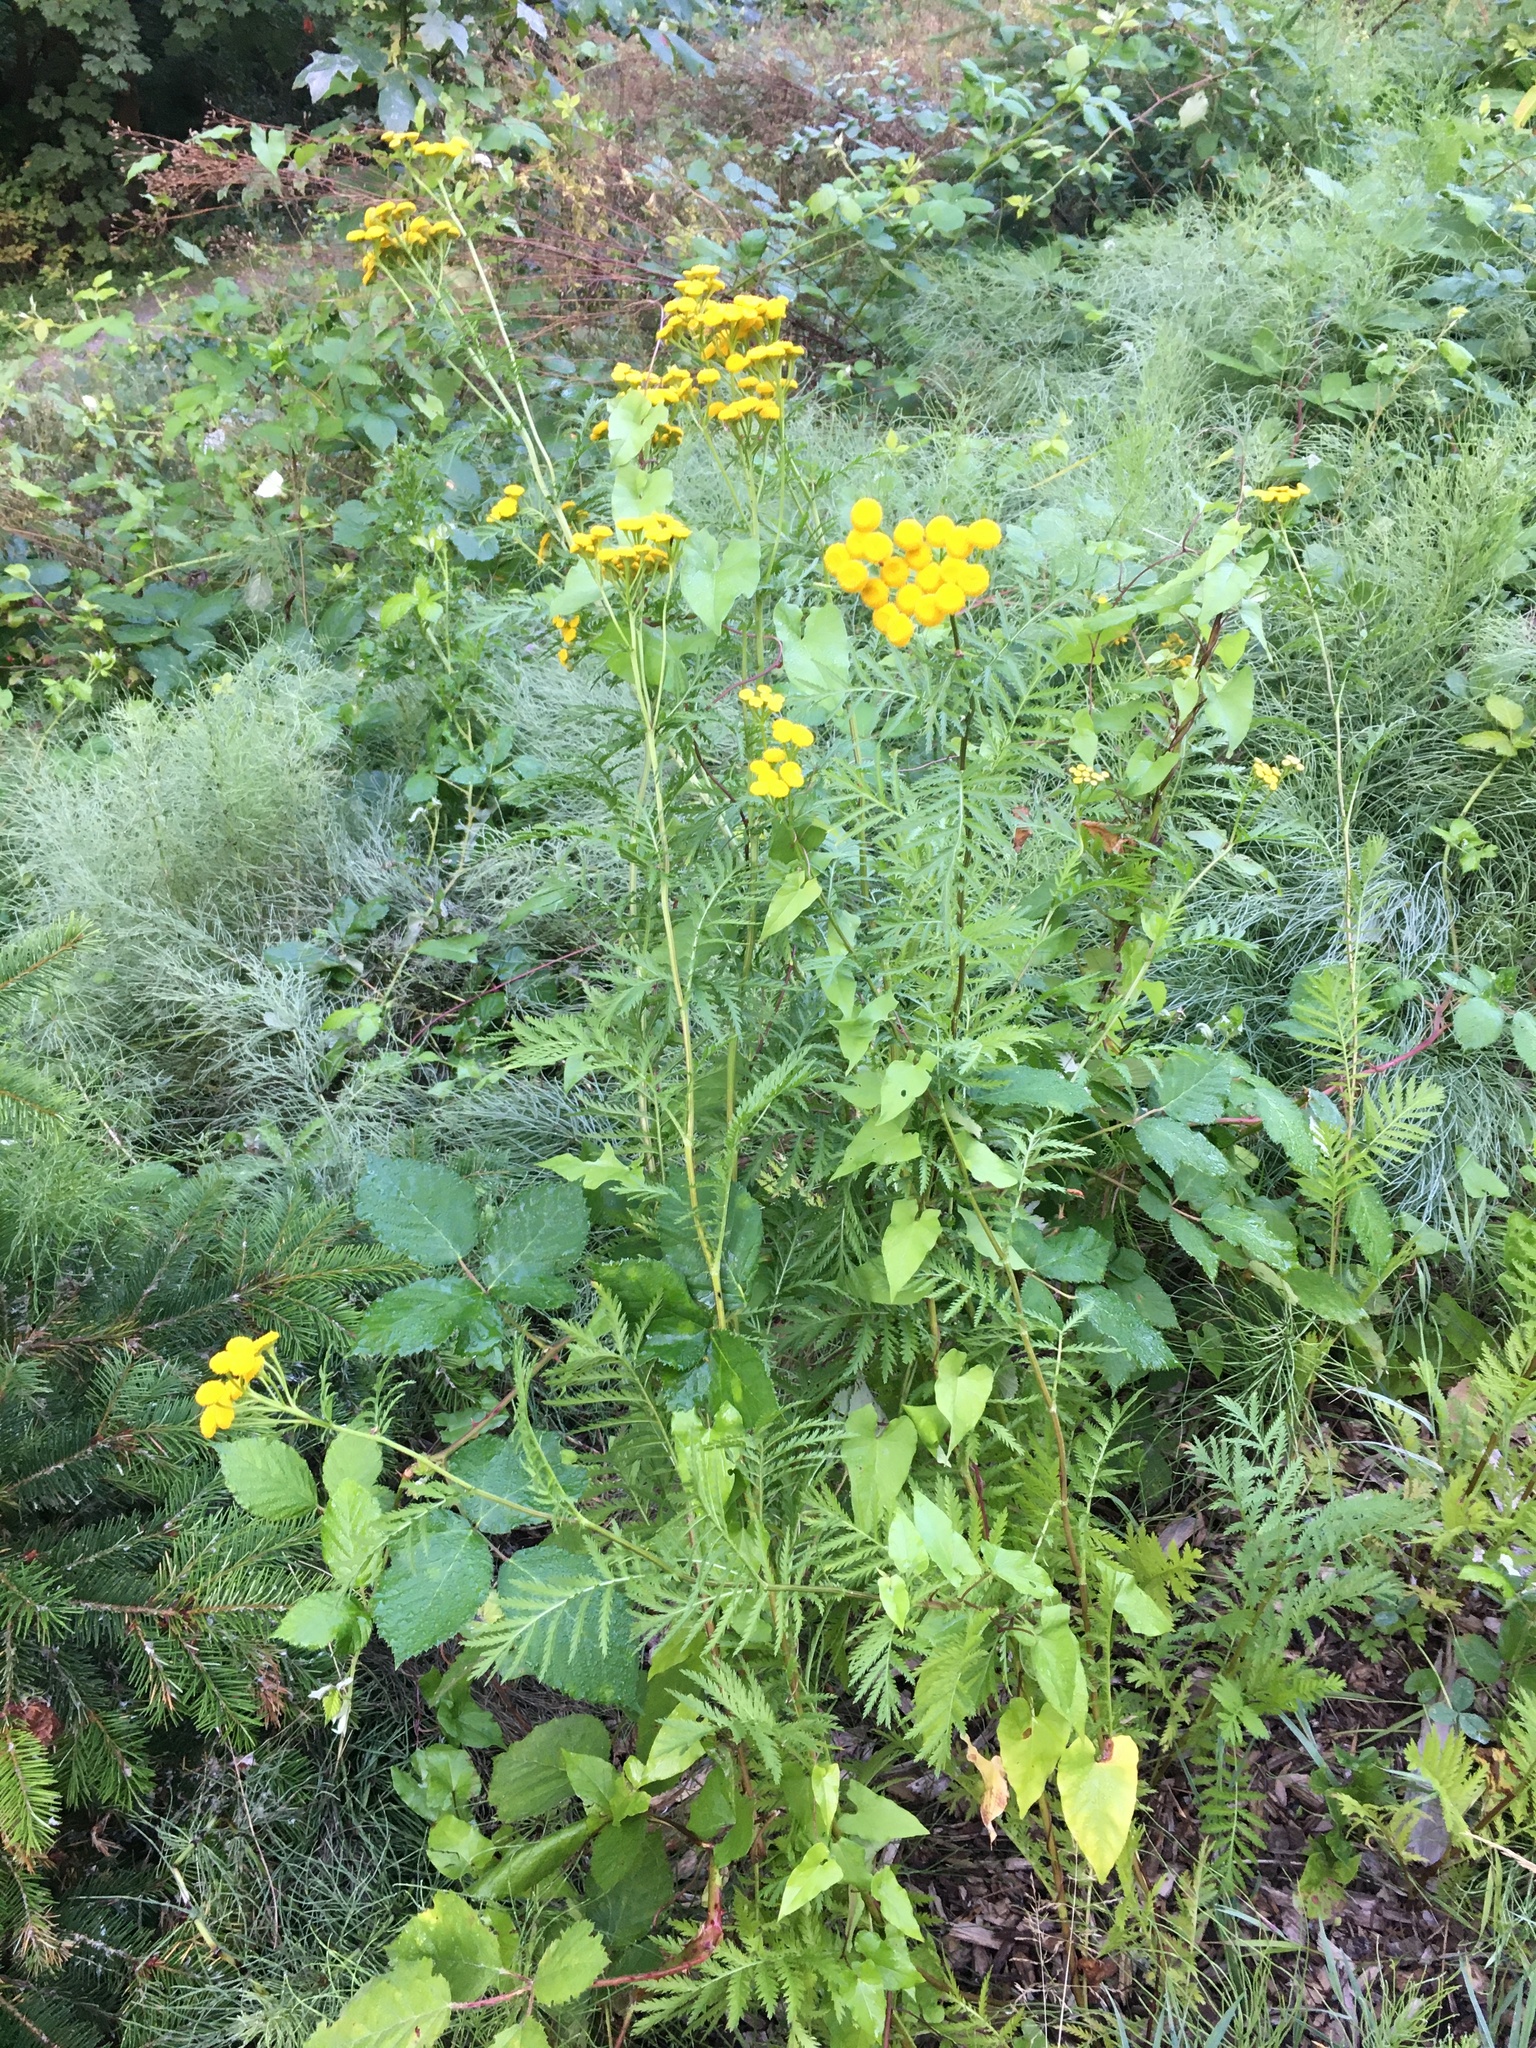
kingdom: Plantae
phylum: Tracheophyta
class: Magnoliopsida
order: Asterales
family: Asteraceae
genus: Tanacetum
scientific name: Tanacetum vulgare
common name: Common tansy
